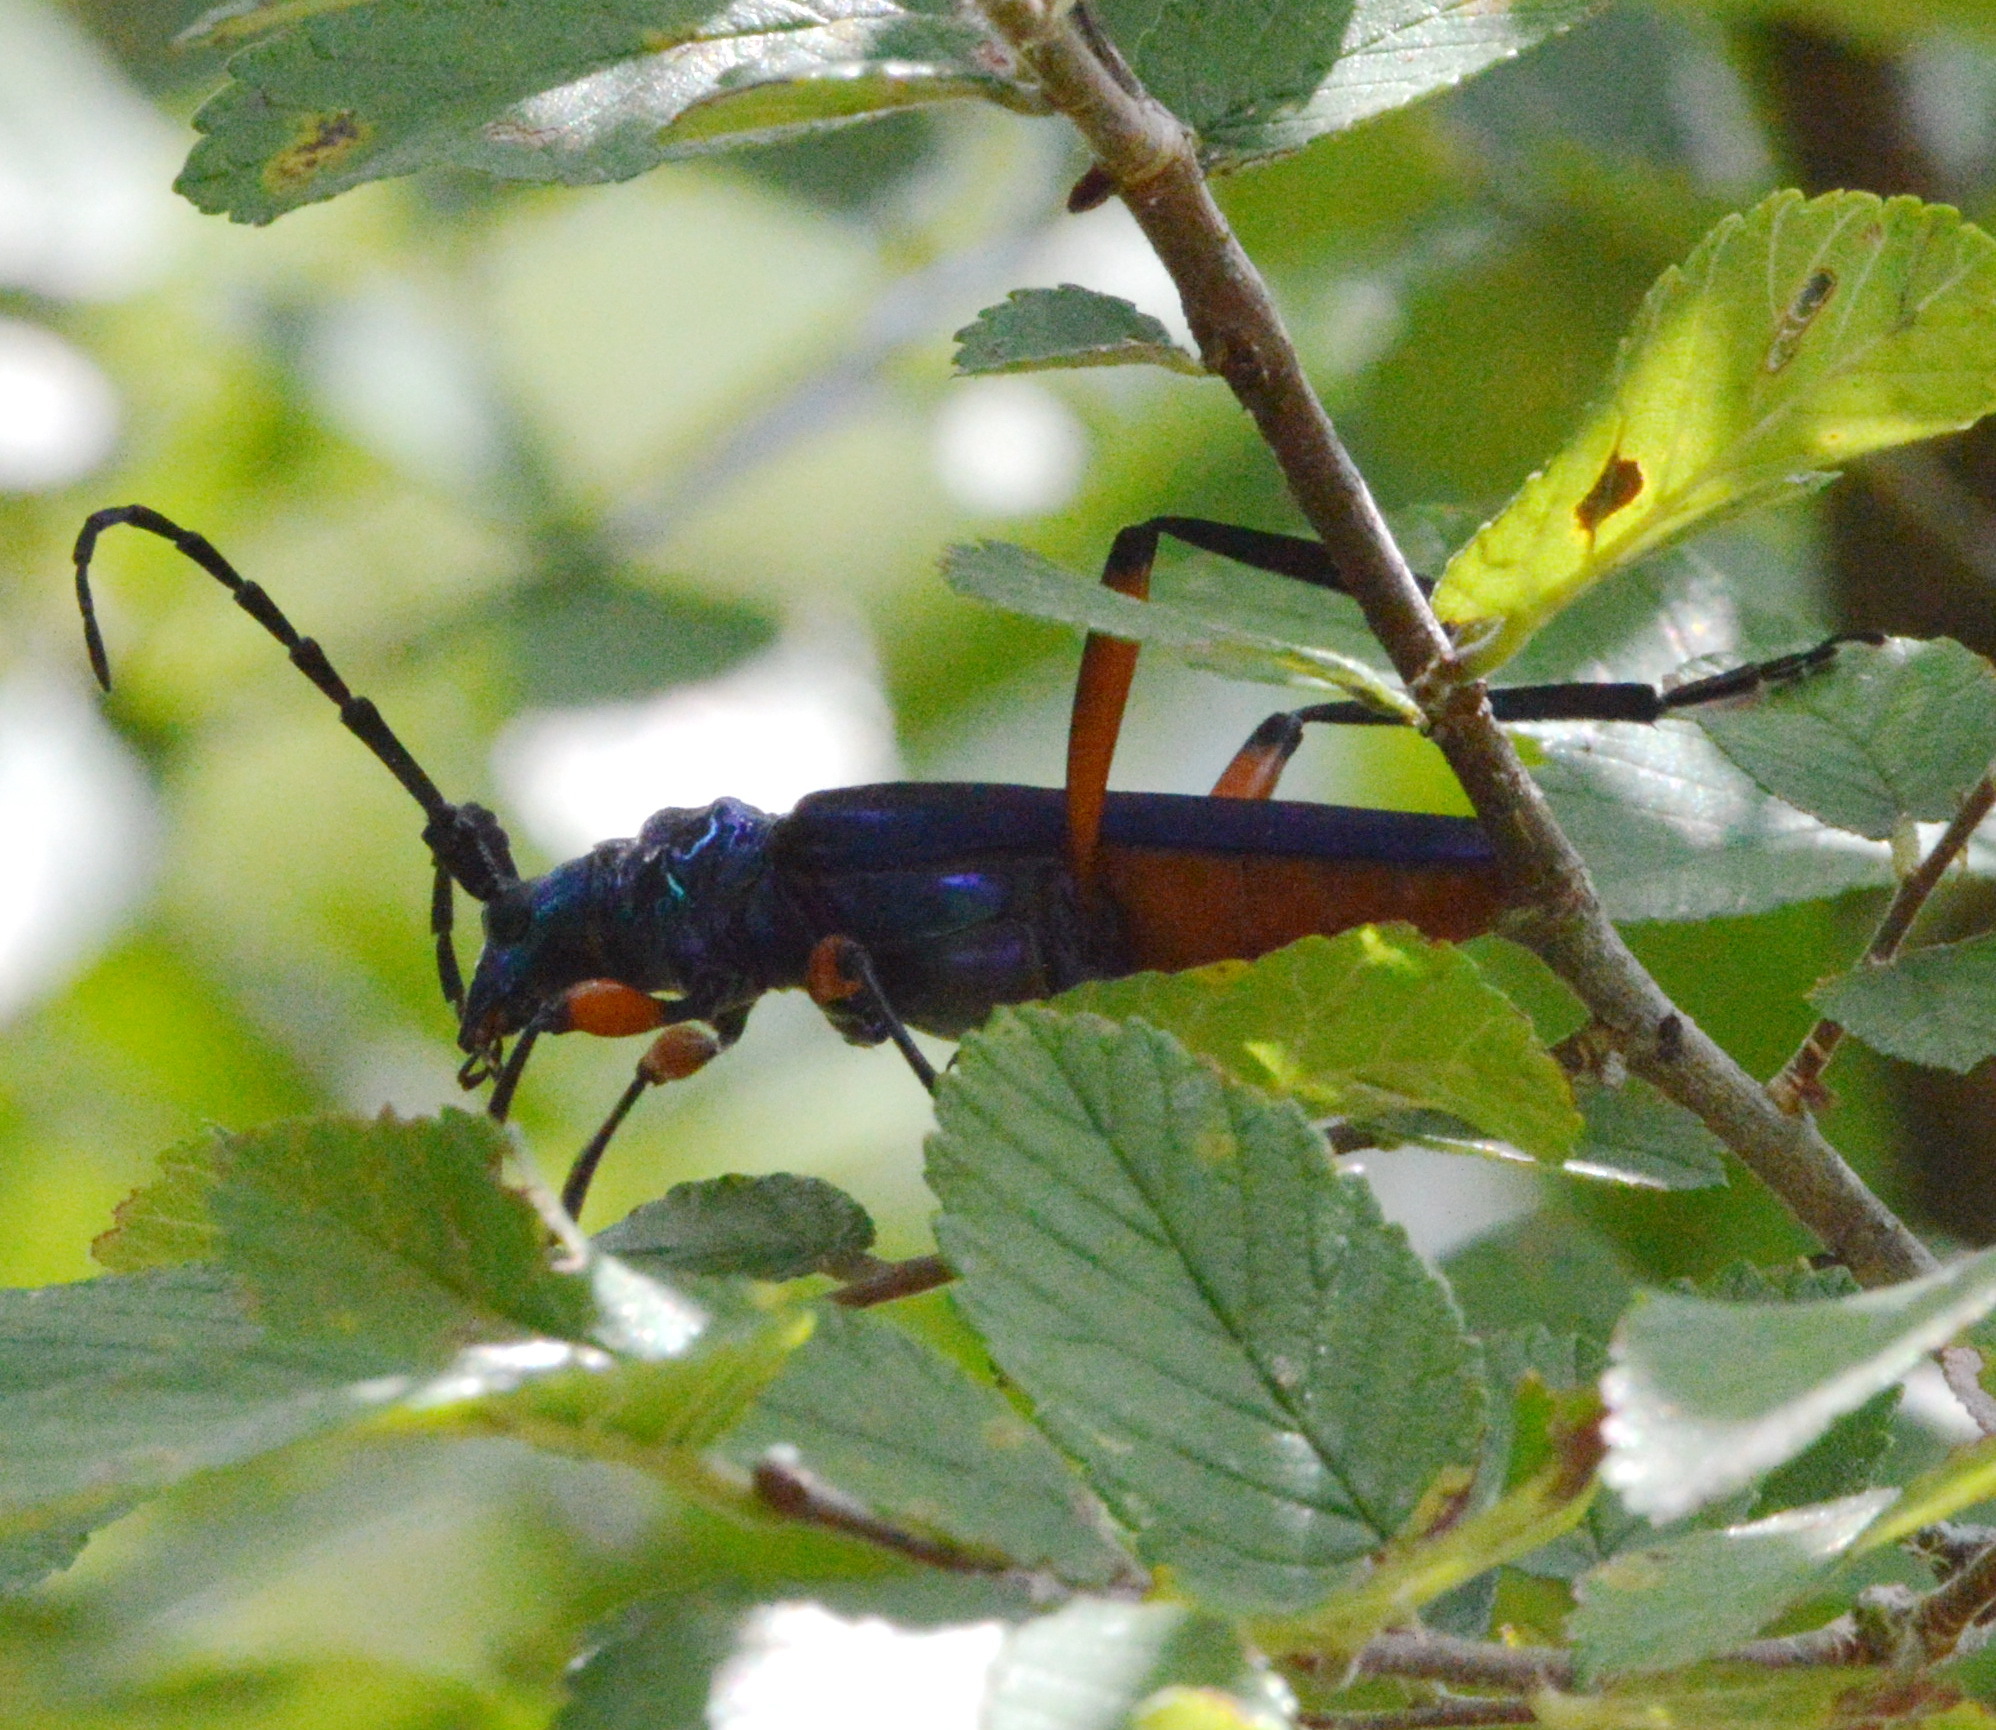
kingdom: Animalia
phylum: Arthropoda
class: Insecta
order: Coleoptera
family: Cerambycidae
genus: Plinthocoelium
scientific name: Plinthocoelium suaveolens
